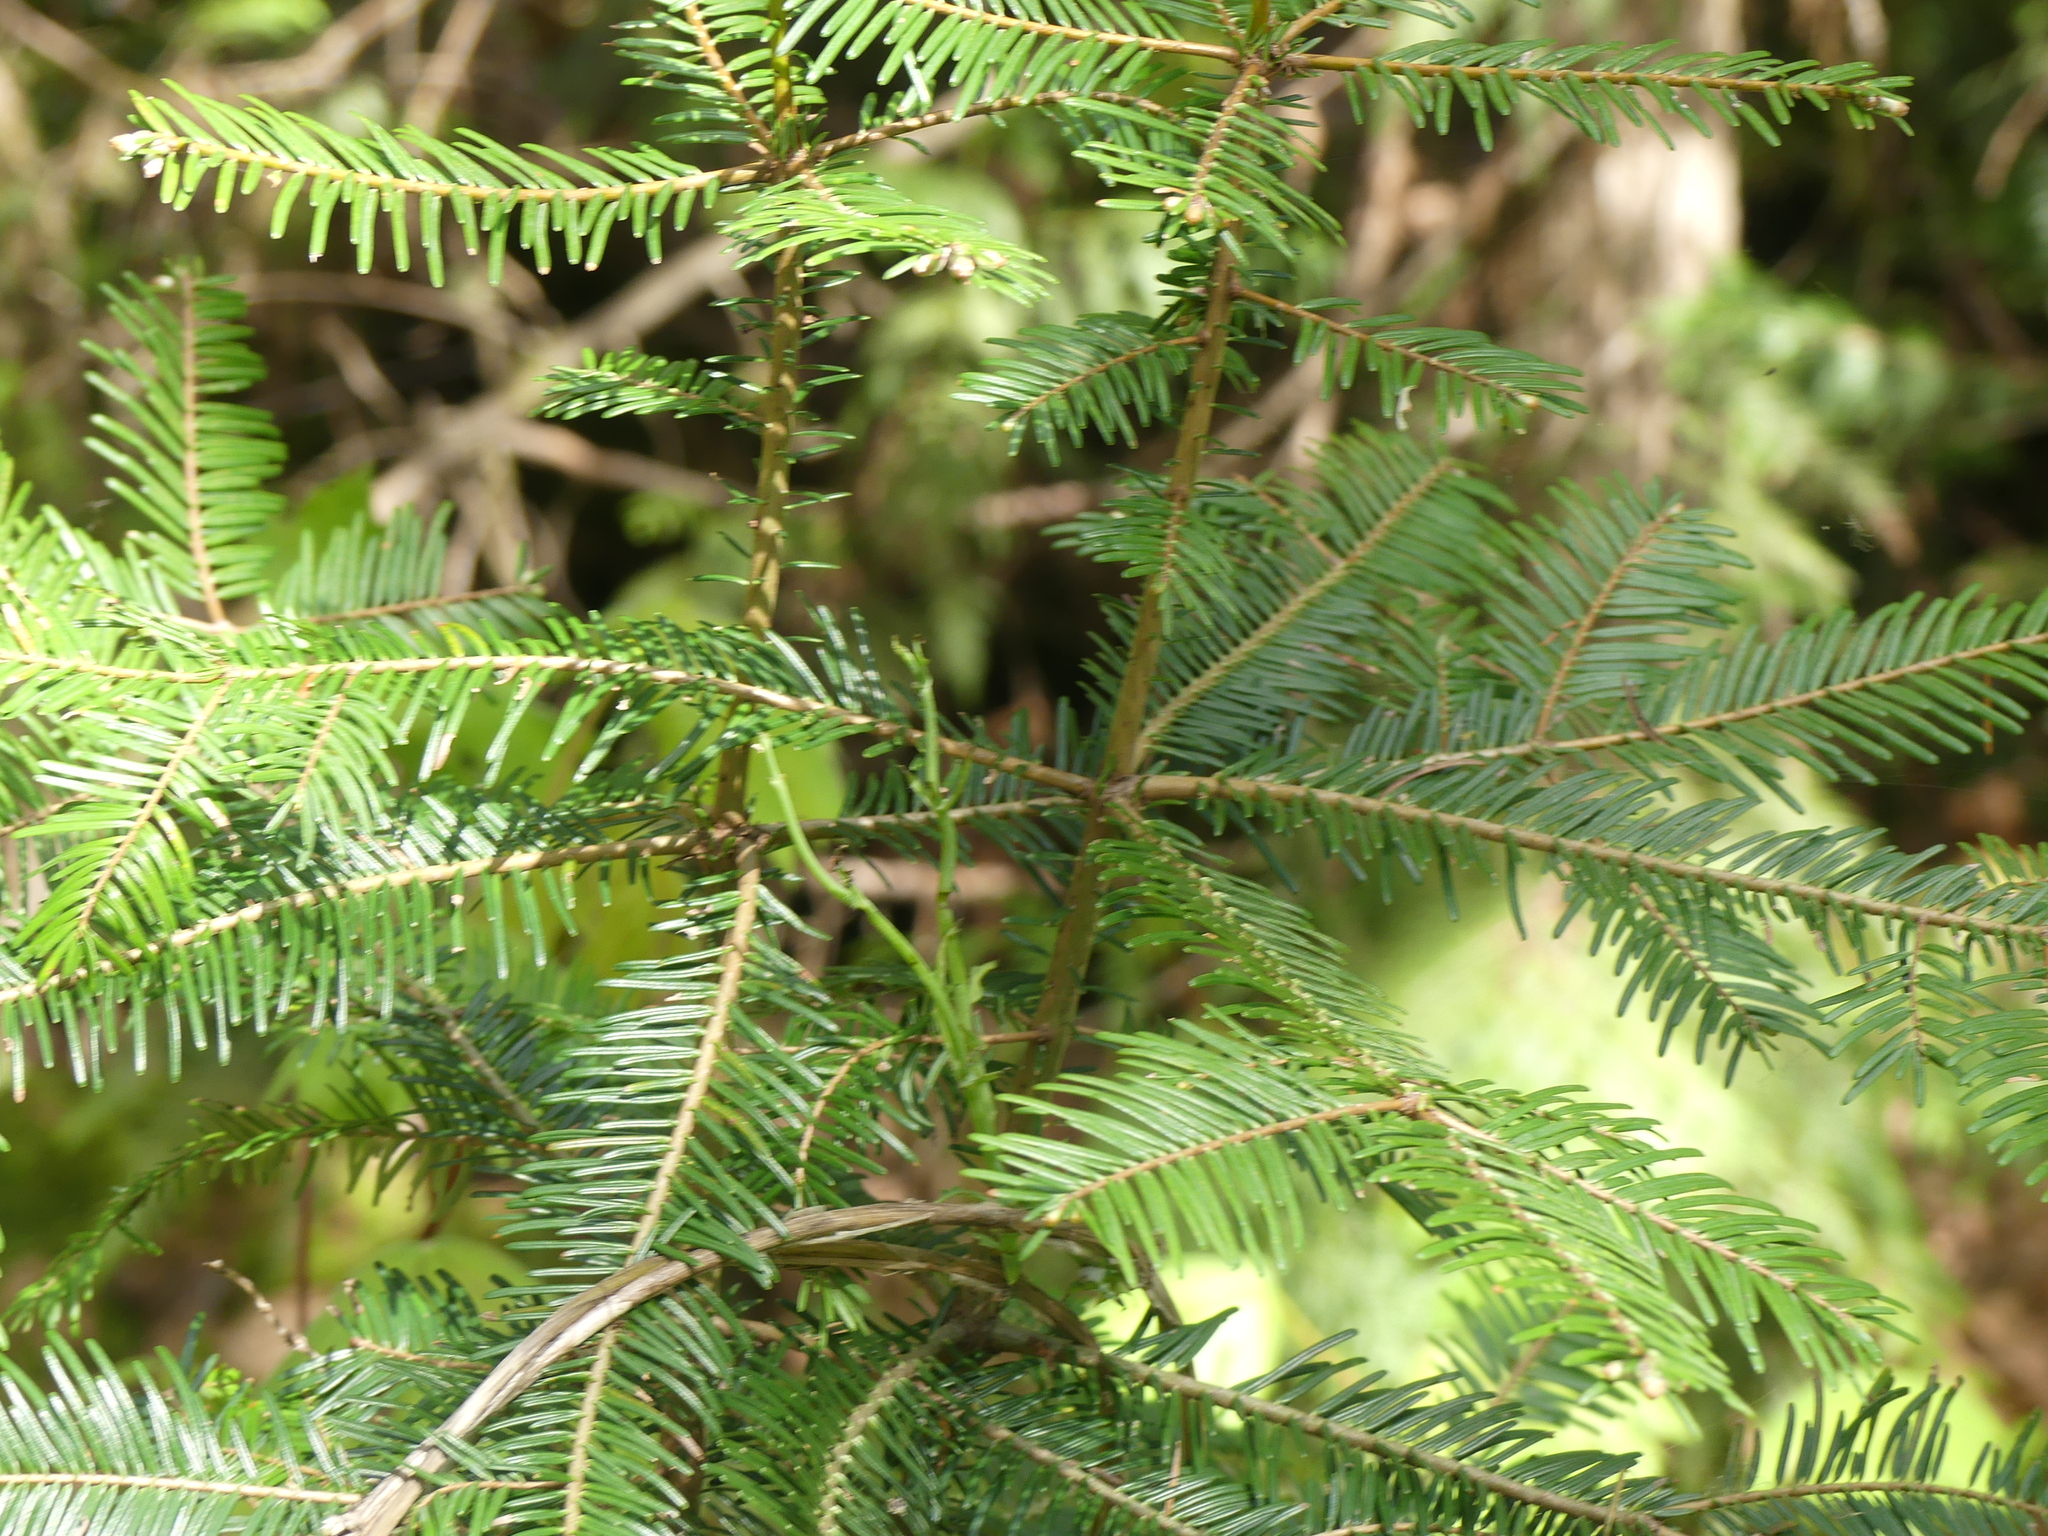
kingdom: Plantae
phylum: Tracheophyta
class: Pinopsida
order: Pinales
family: Pinaceae
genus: Abies
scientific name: Abies grandis
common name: Giant fir
